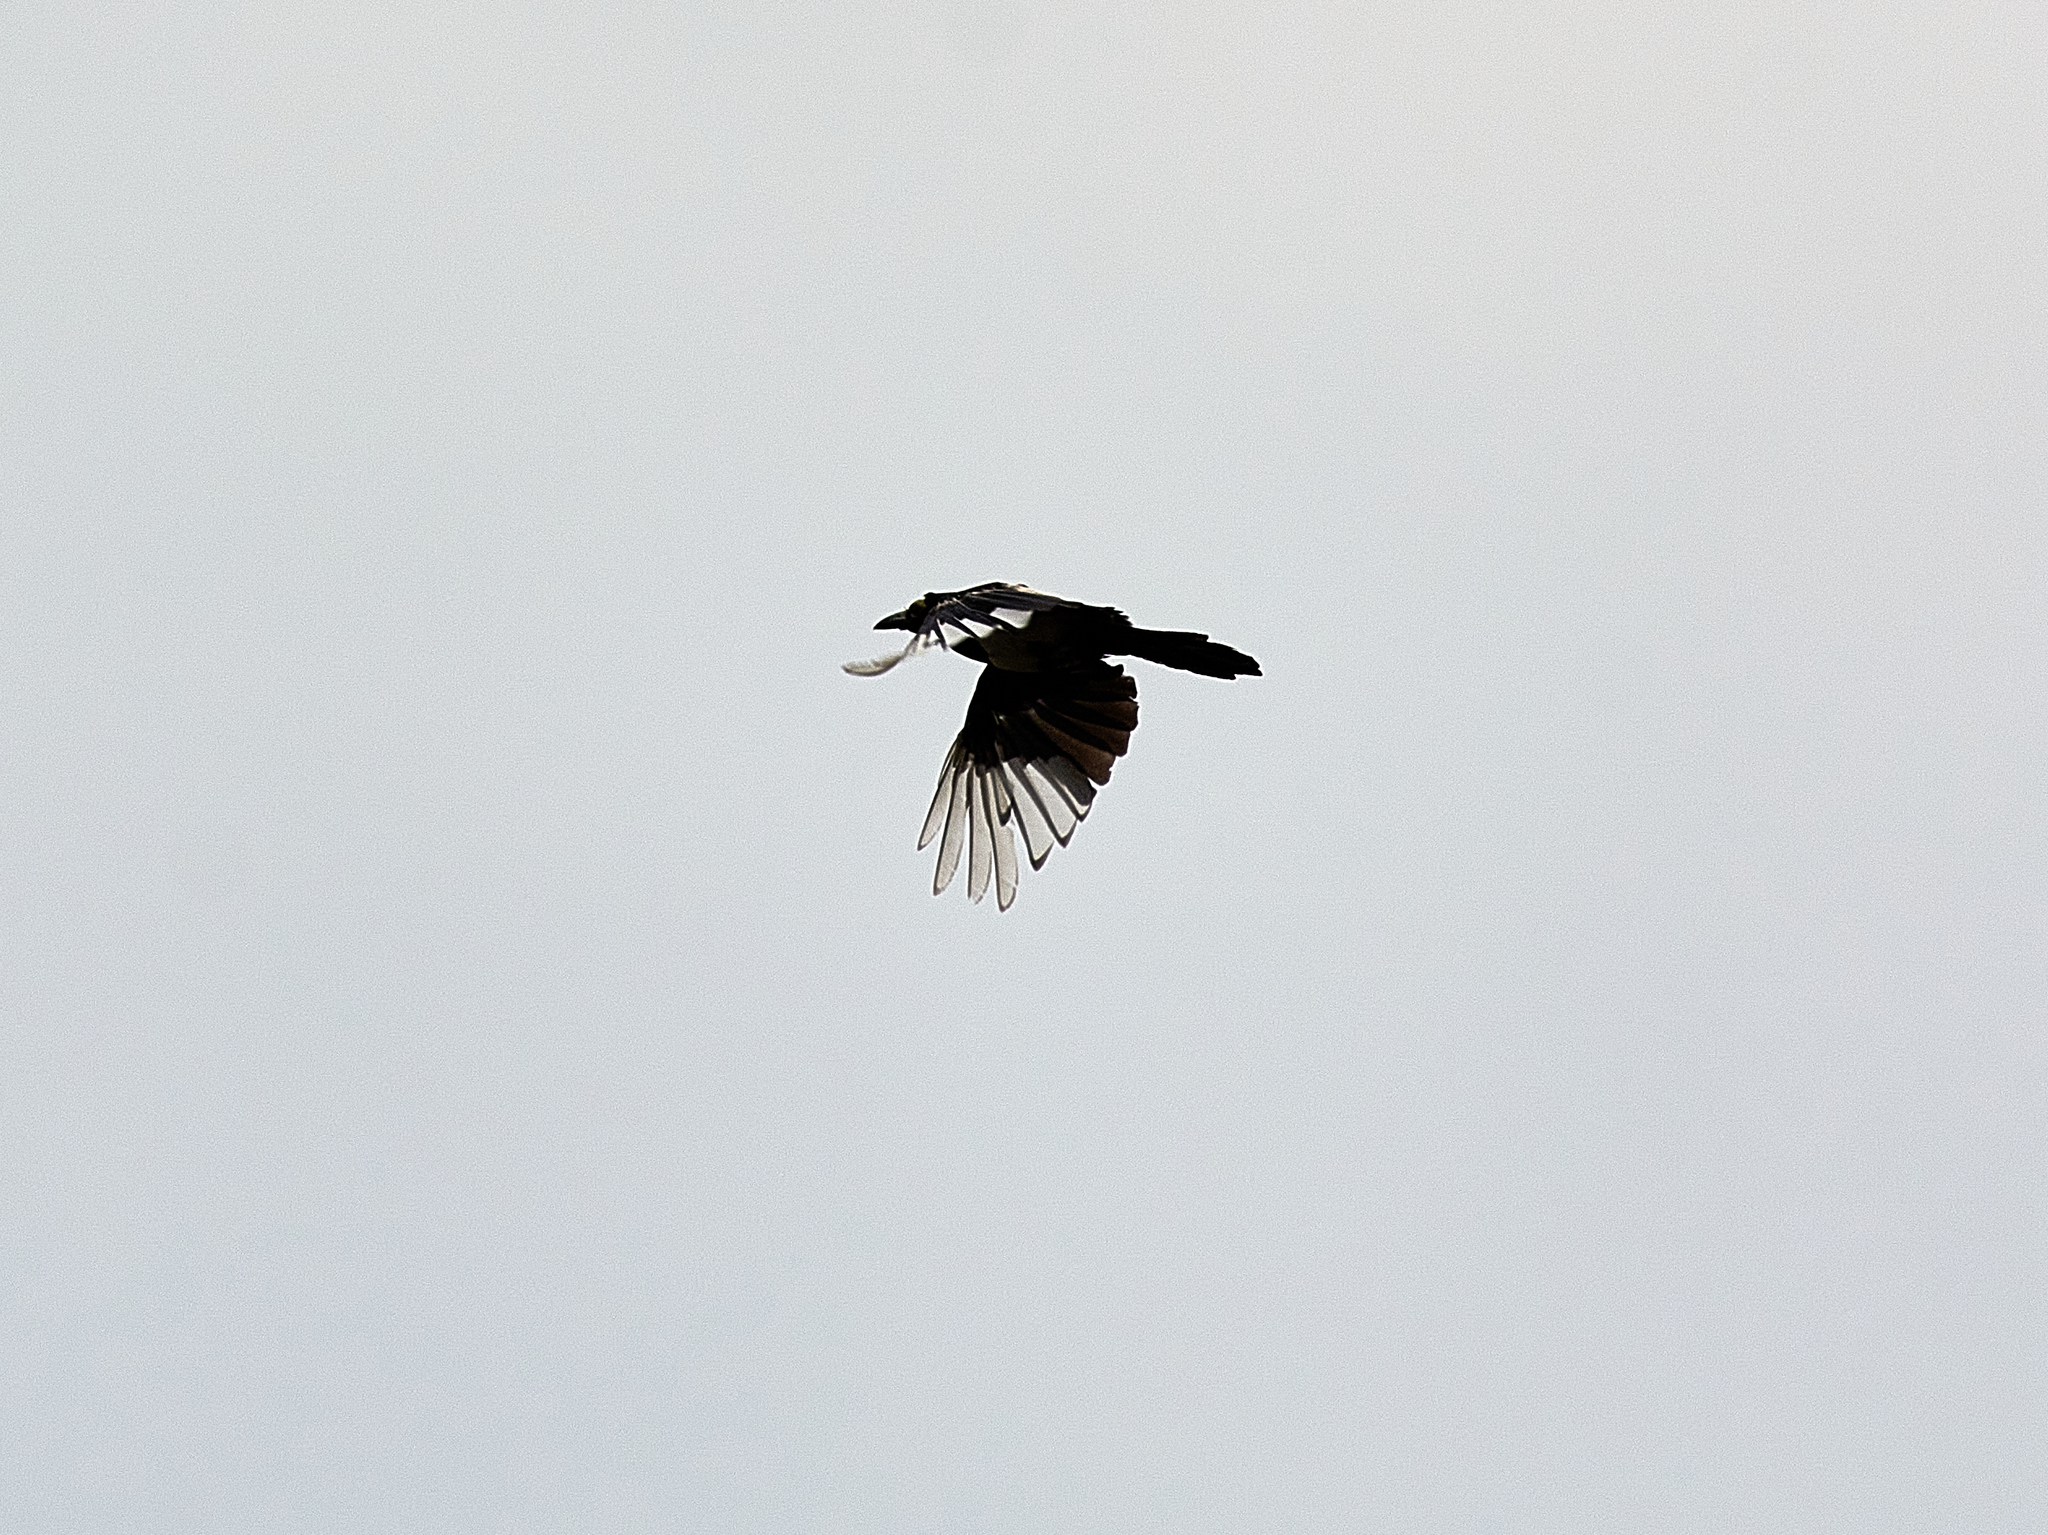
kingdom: Animalia
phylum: Chordata
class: Aves
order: Passeriformes
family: Corvidae
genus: Pica
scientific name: Pica pica
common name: Eurasian magpie
